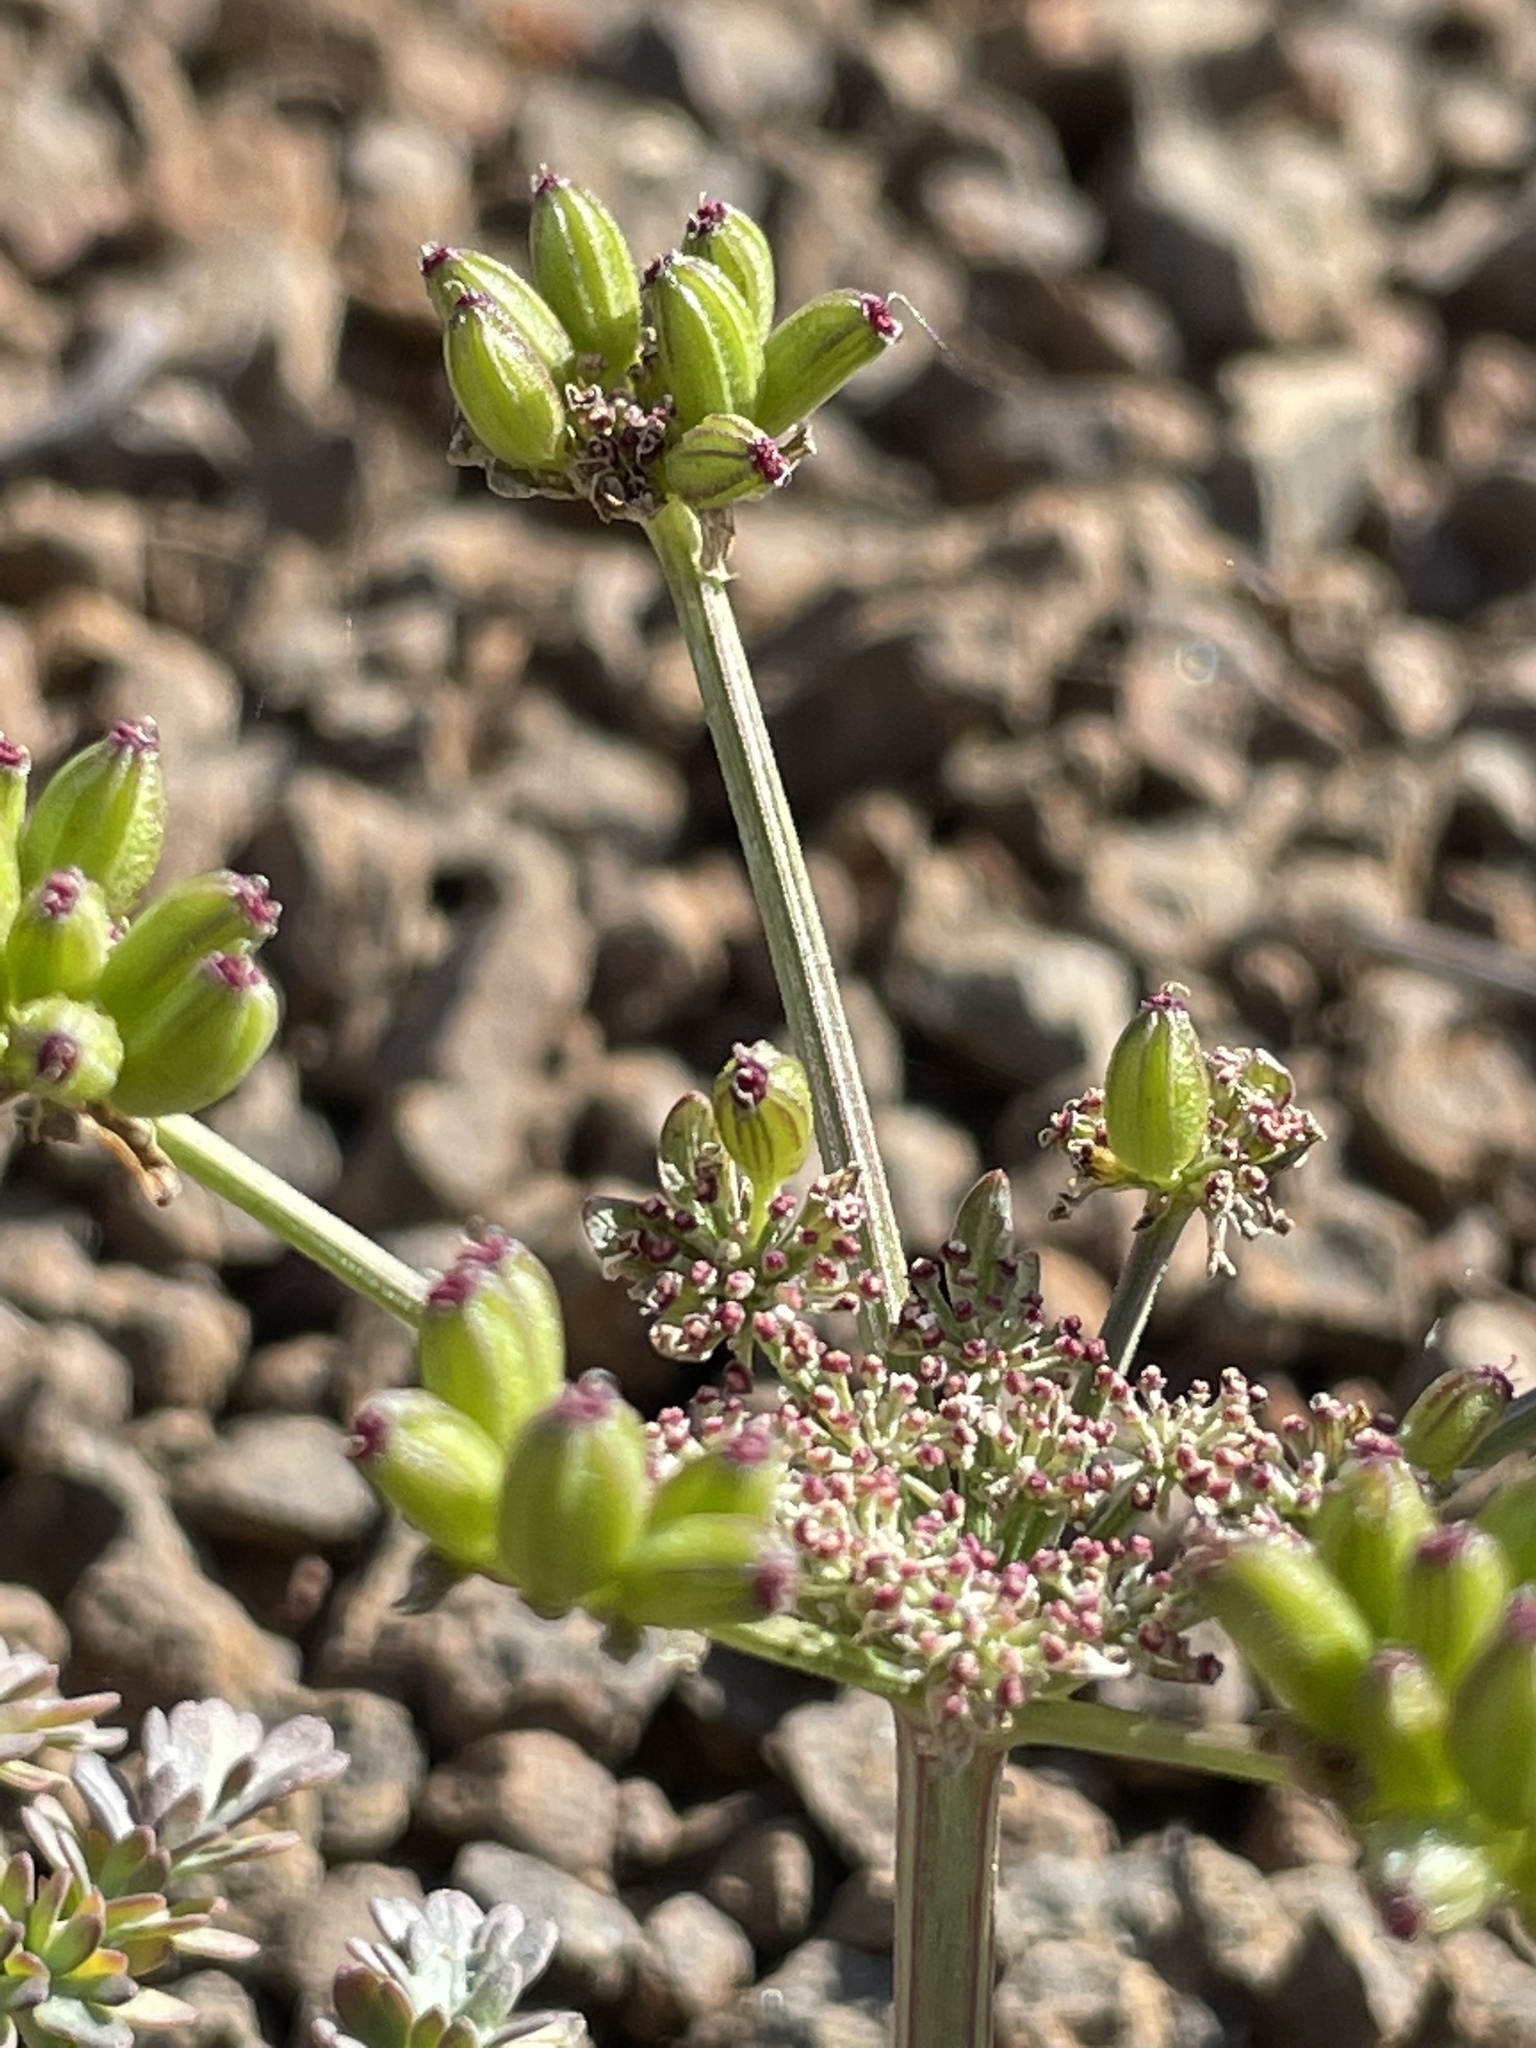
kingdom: Plantae
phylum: Tracheophyta
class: Magnoliopsida
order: Apiales
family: Apiaceae
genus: Lomatium
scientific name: Lomatium cous
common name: Biscuit-root
